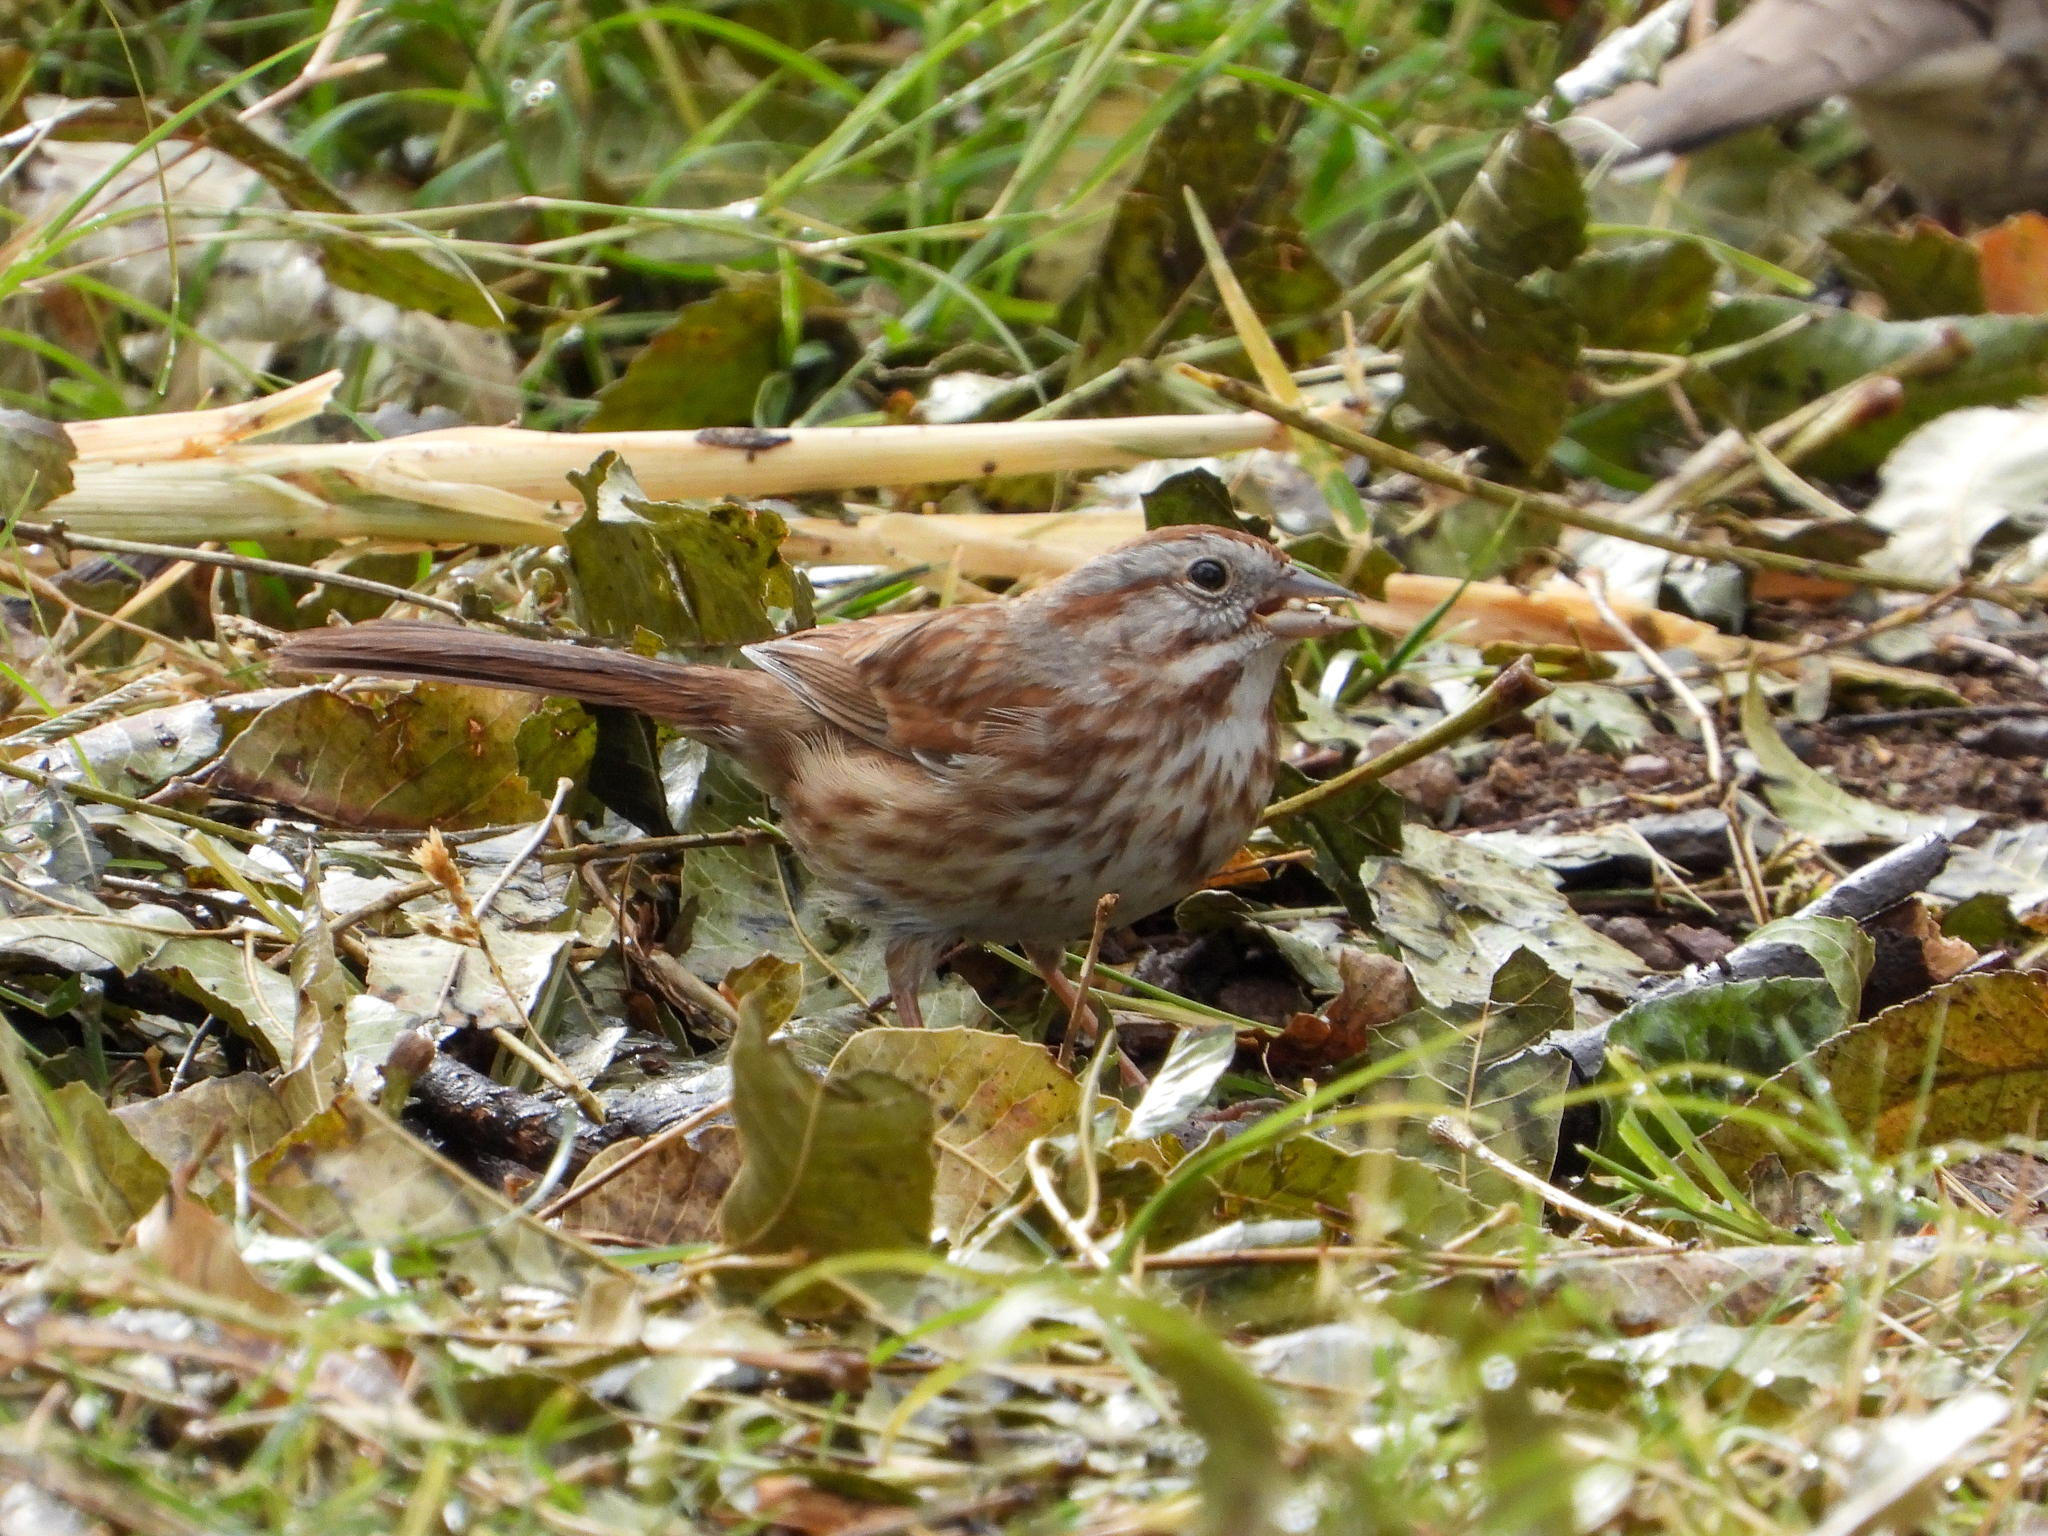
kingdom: Animalia
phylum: Chordata
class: Aves
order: Passeriformes
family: Passerellidae
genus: Melospiza
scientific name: Melospiza melodia
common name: Song sparrow
